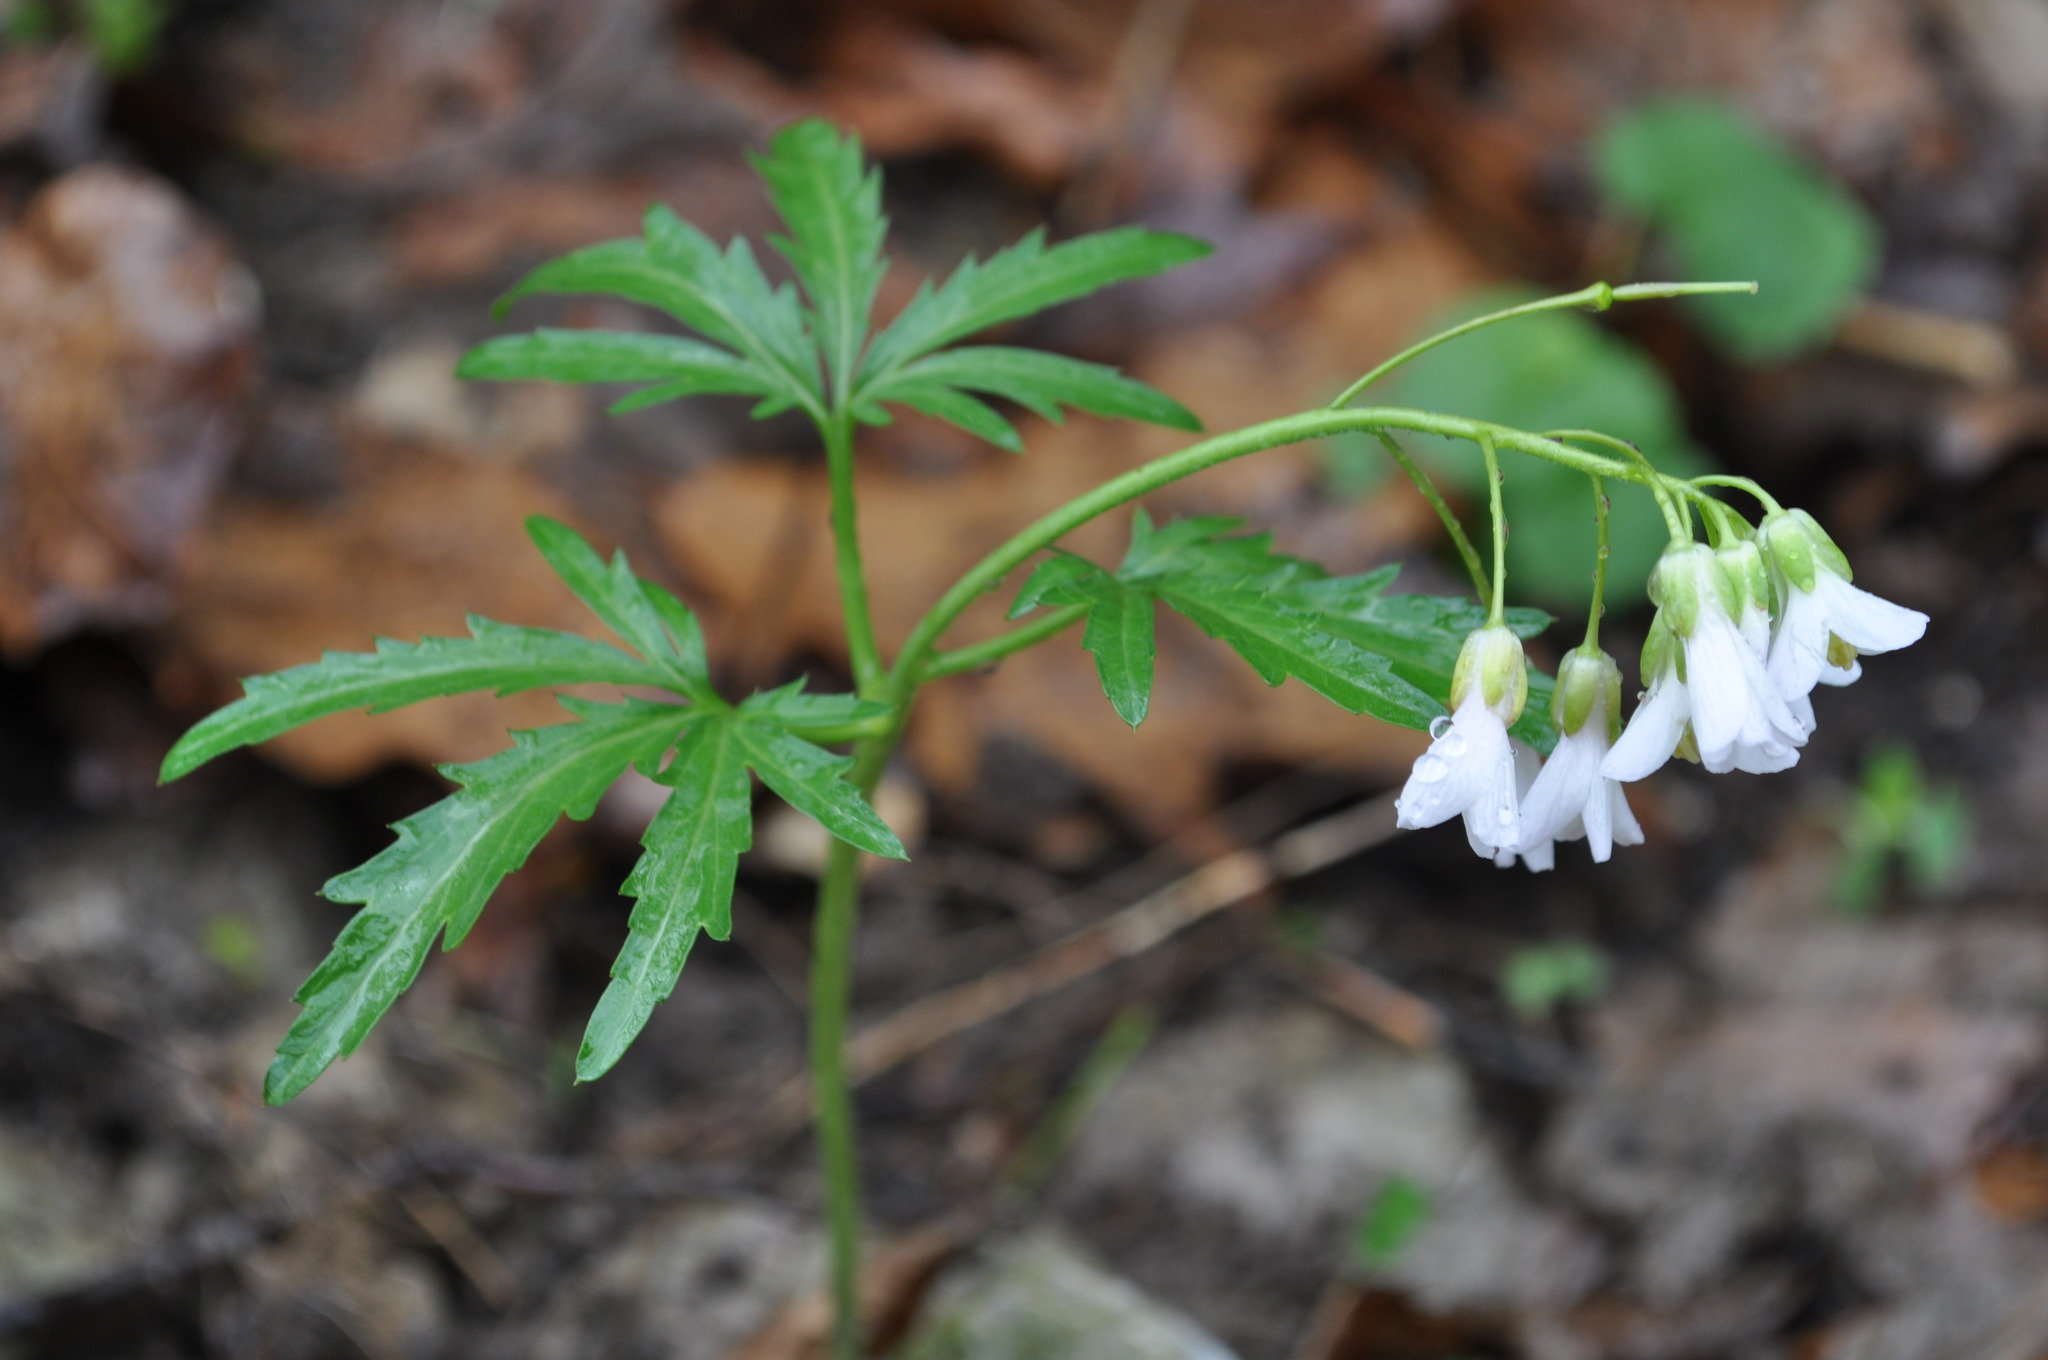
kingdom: Plantae
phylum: Tracheophyta
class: Magnoliopsida
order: Brassicales
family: Brassicaceae
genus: Cardamine
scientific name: Cardamine concatenata
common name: Cut-leaf toothcup
